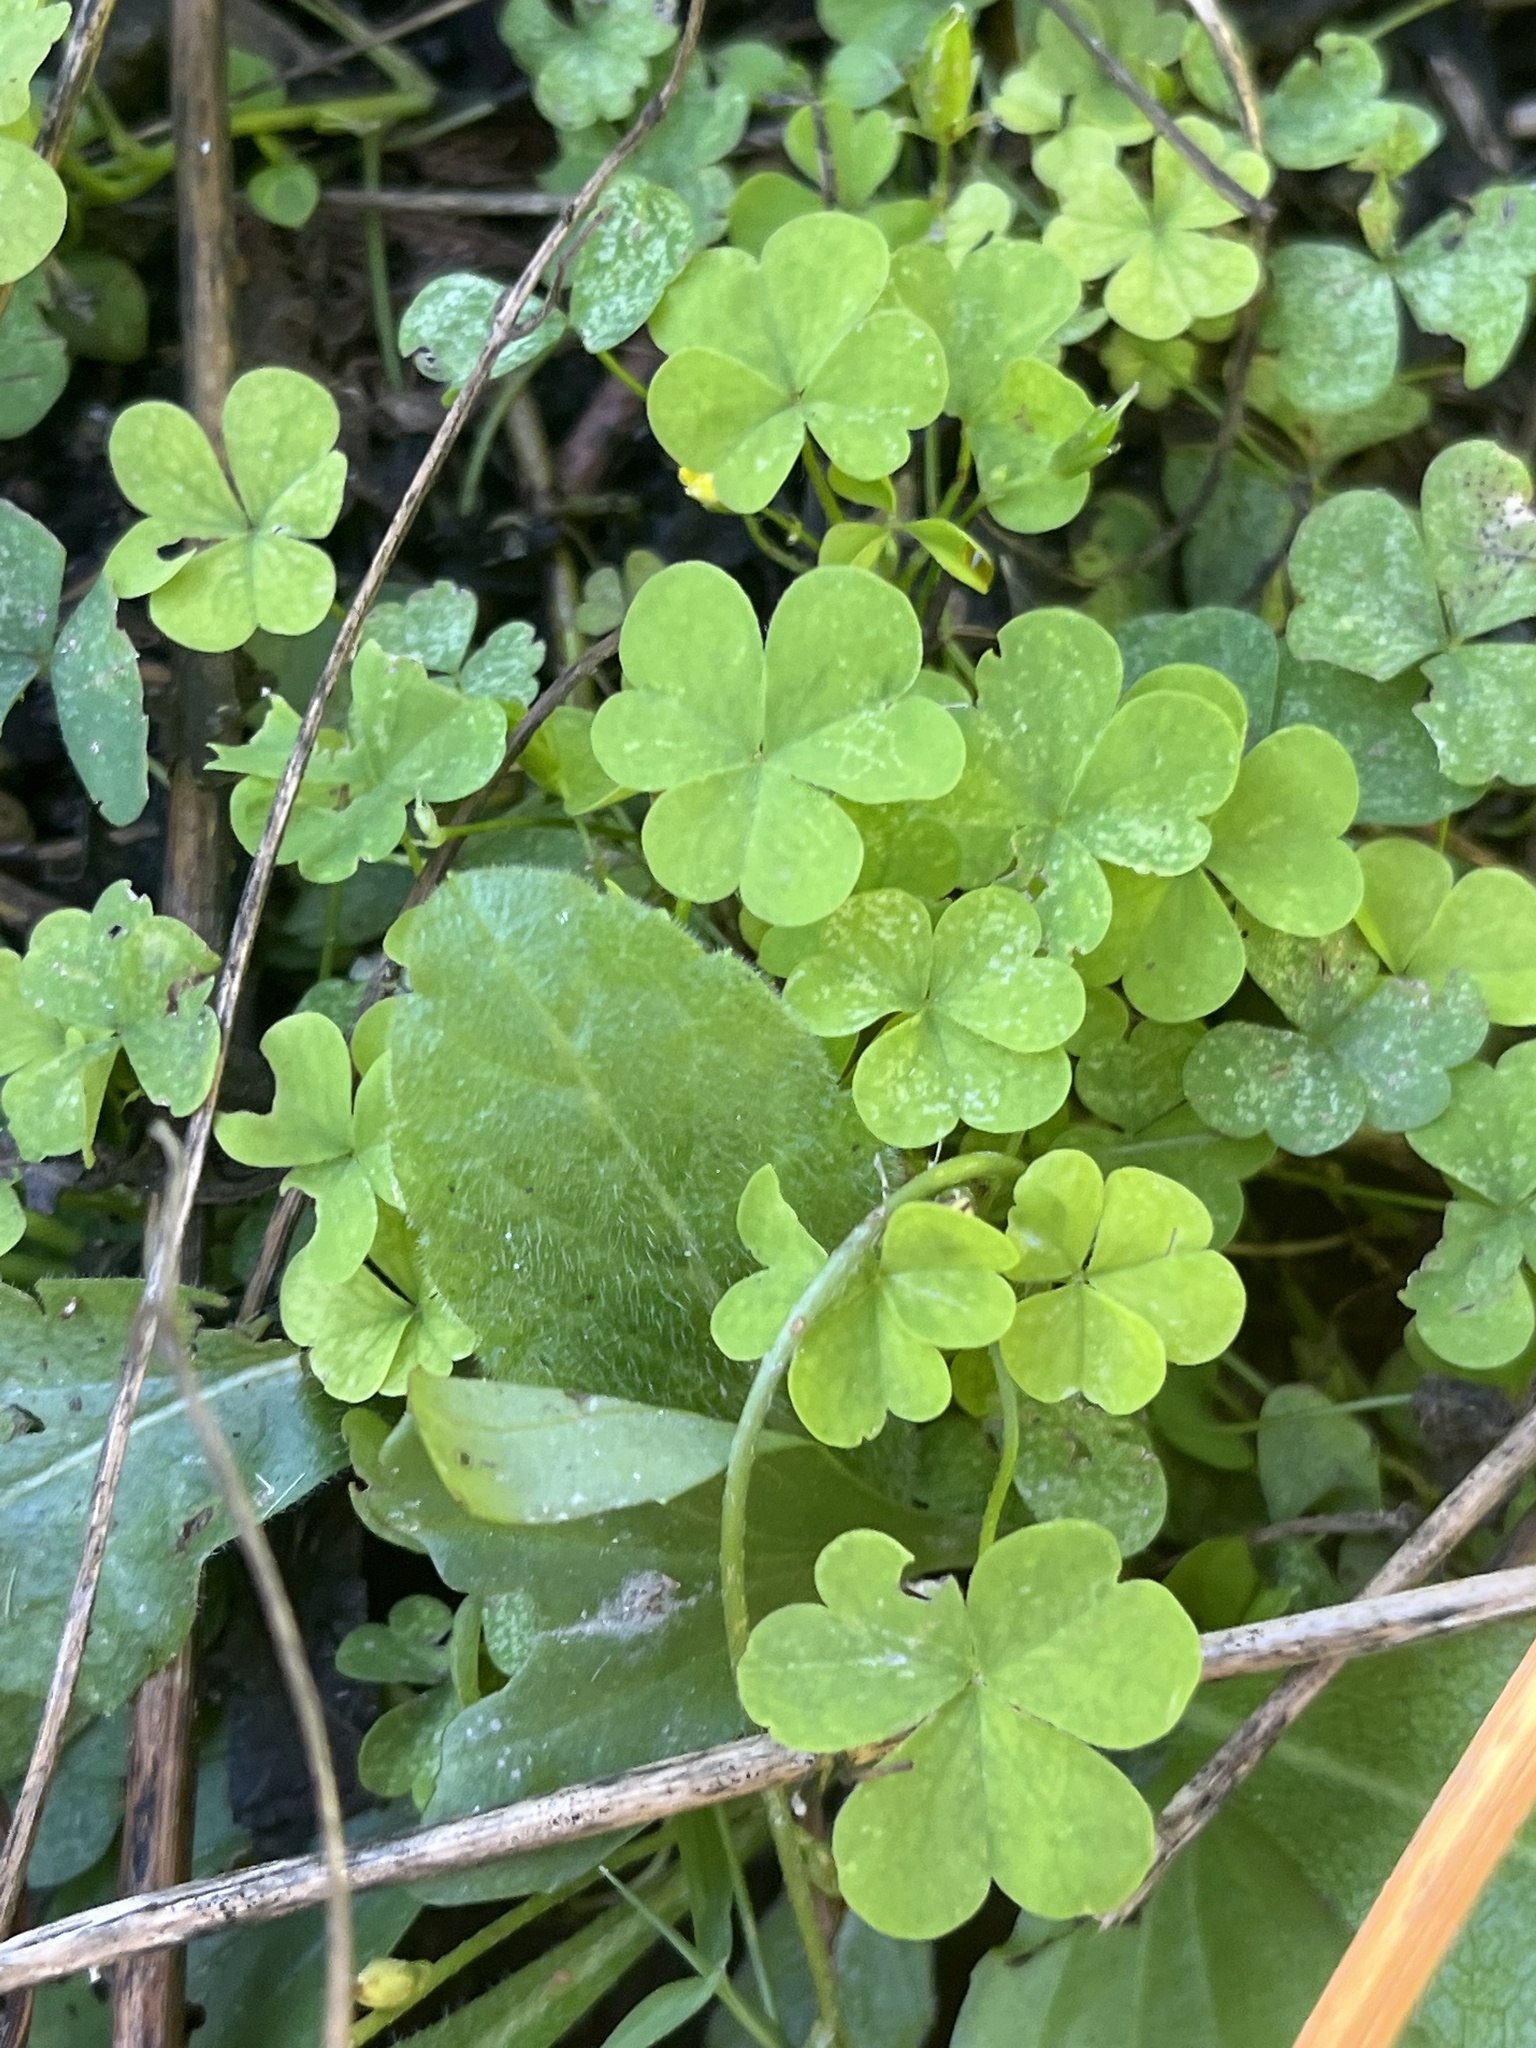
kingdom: Plantae
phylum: Tracheophyta
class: Magnoliopsida
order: Oxalidales
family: Oxalidaceae
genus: Oxalis
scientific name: Oxalis
